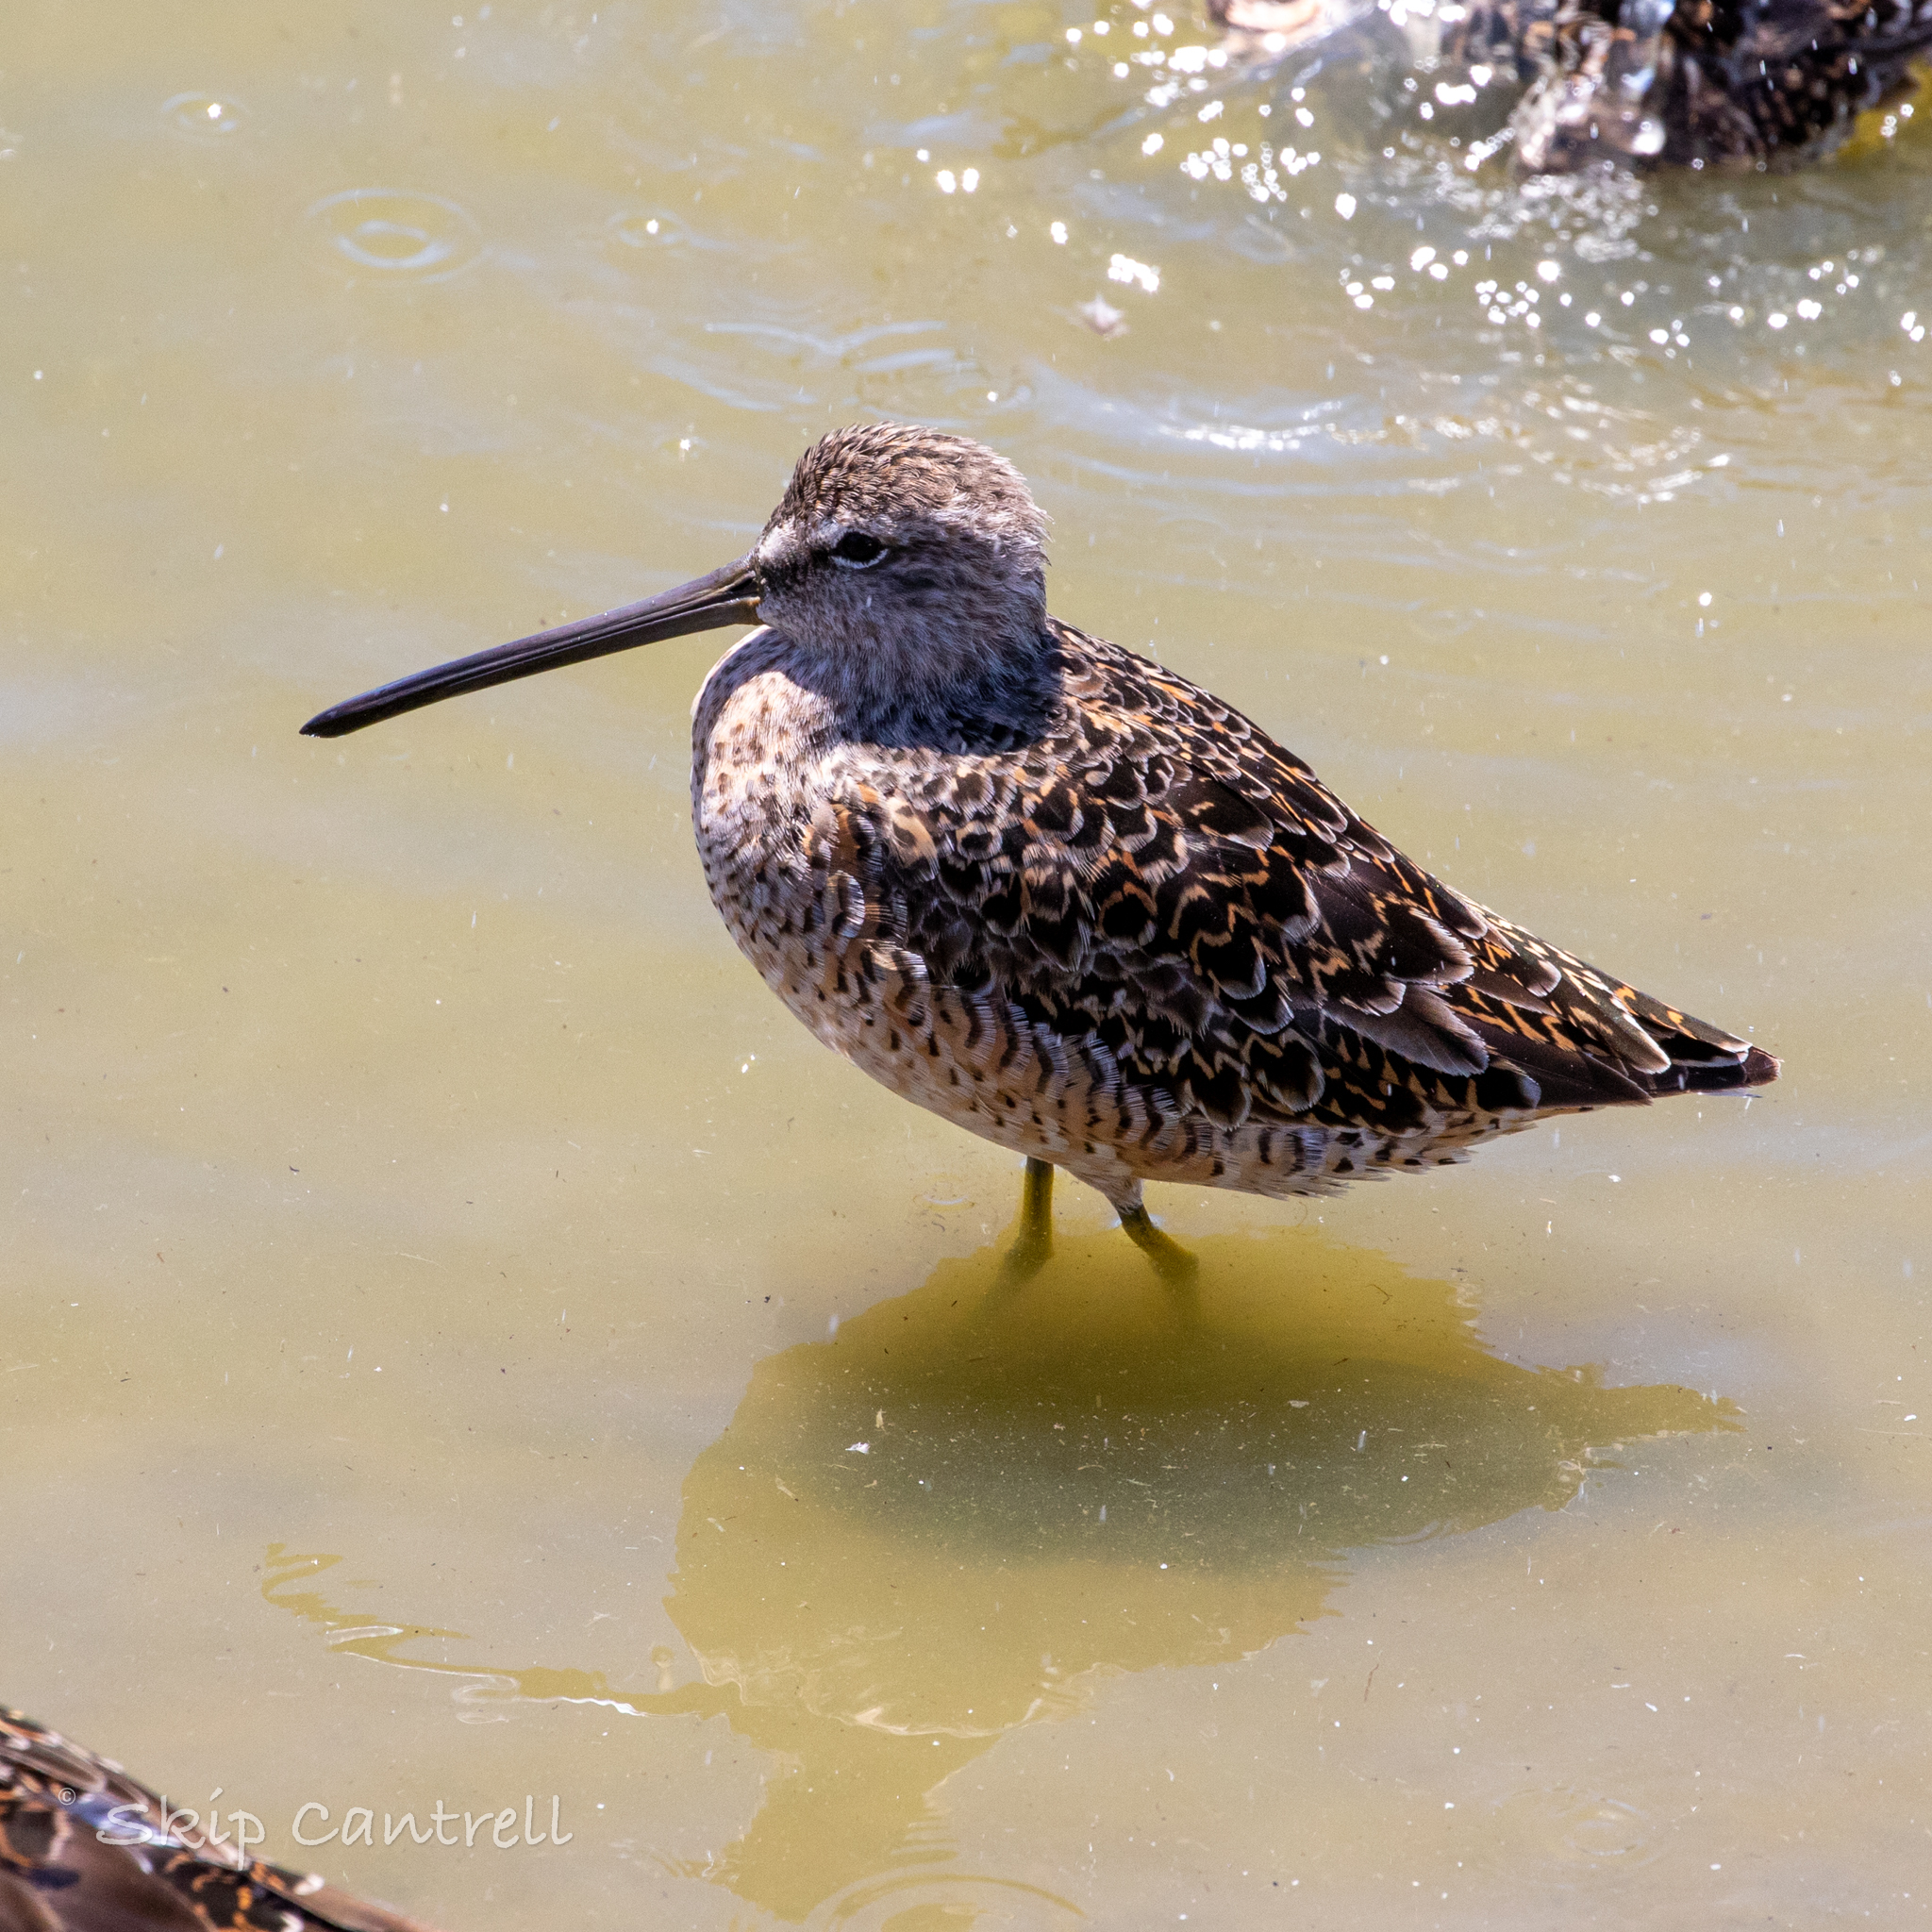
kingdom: Animalia
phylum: Chordata
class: Aves
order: Charadriiformes
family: Scolopacidae
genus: Limnodromus
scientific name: Limnodromus griseus
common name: Short-billed dowitcher
